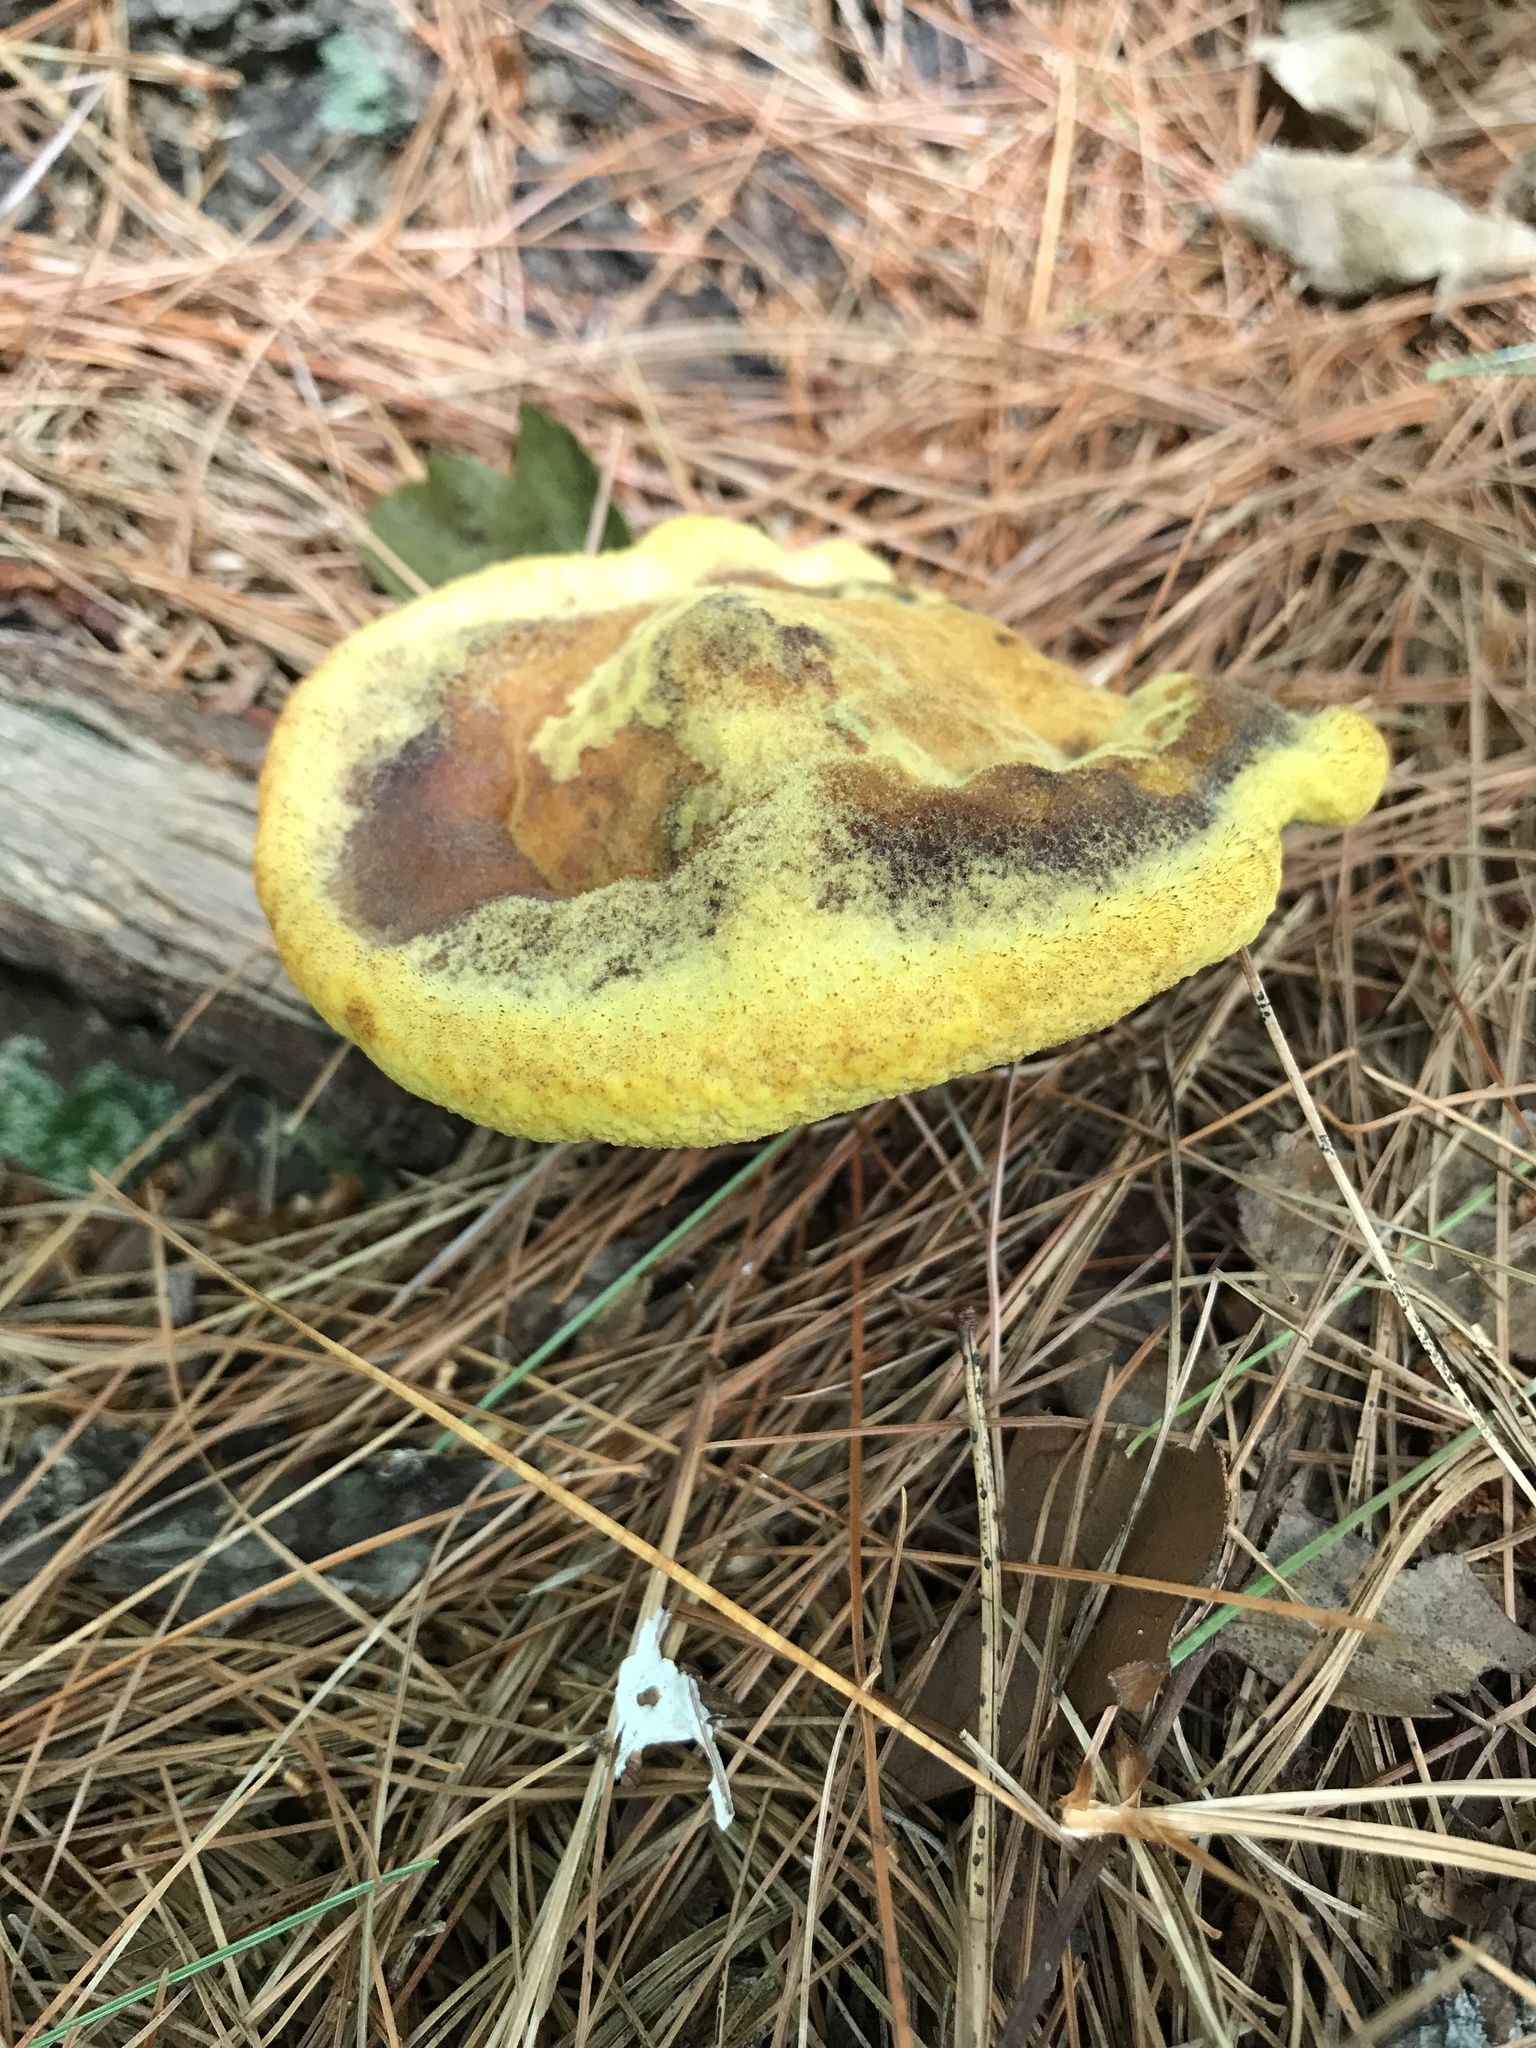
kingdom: Fungi
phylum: Basidiomycota
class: Agaricomycetes
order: Polyporales
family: Laetiporaceae
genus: Phaeolus
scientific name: Phaeolus schweinitzii
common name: Dyer's mazegill
